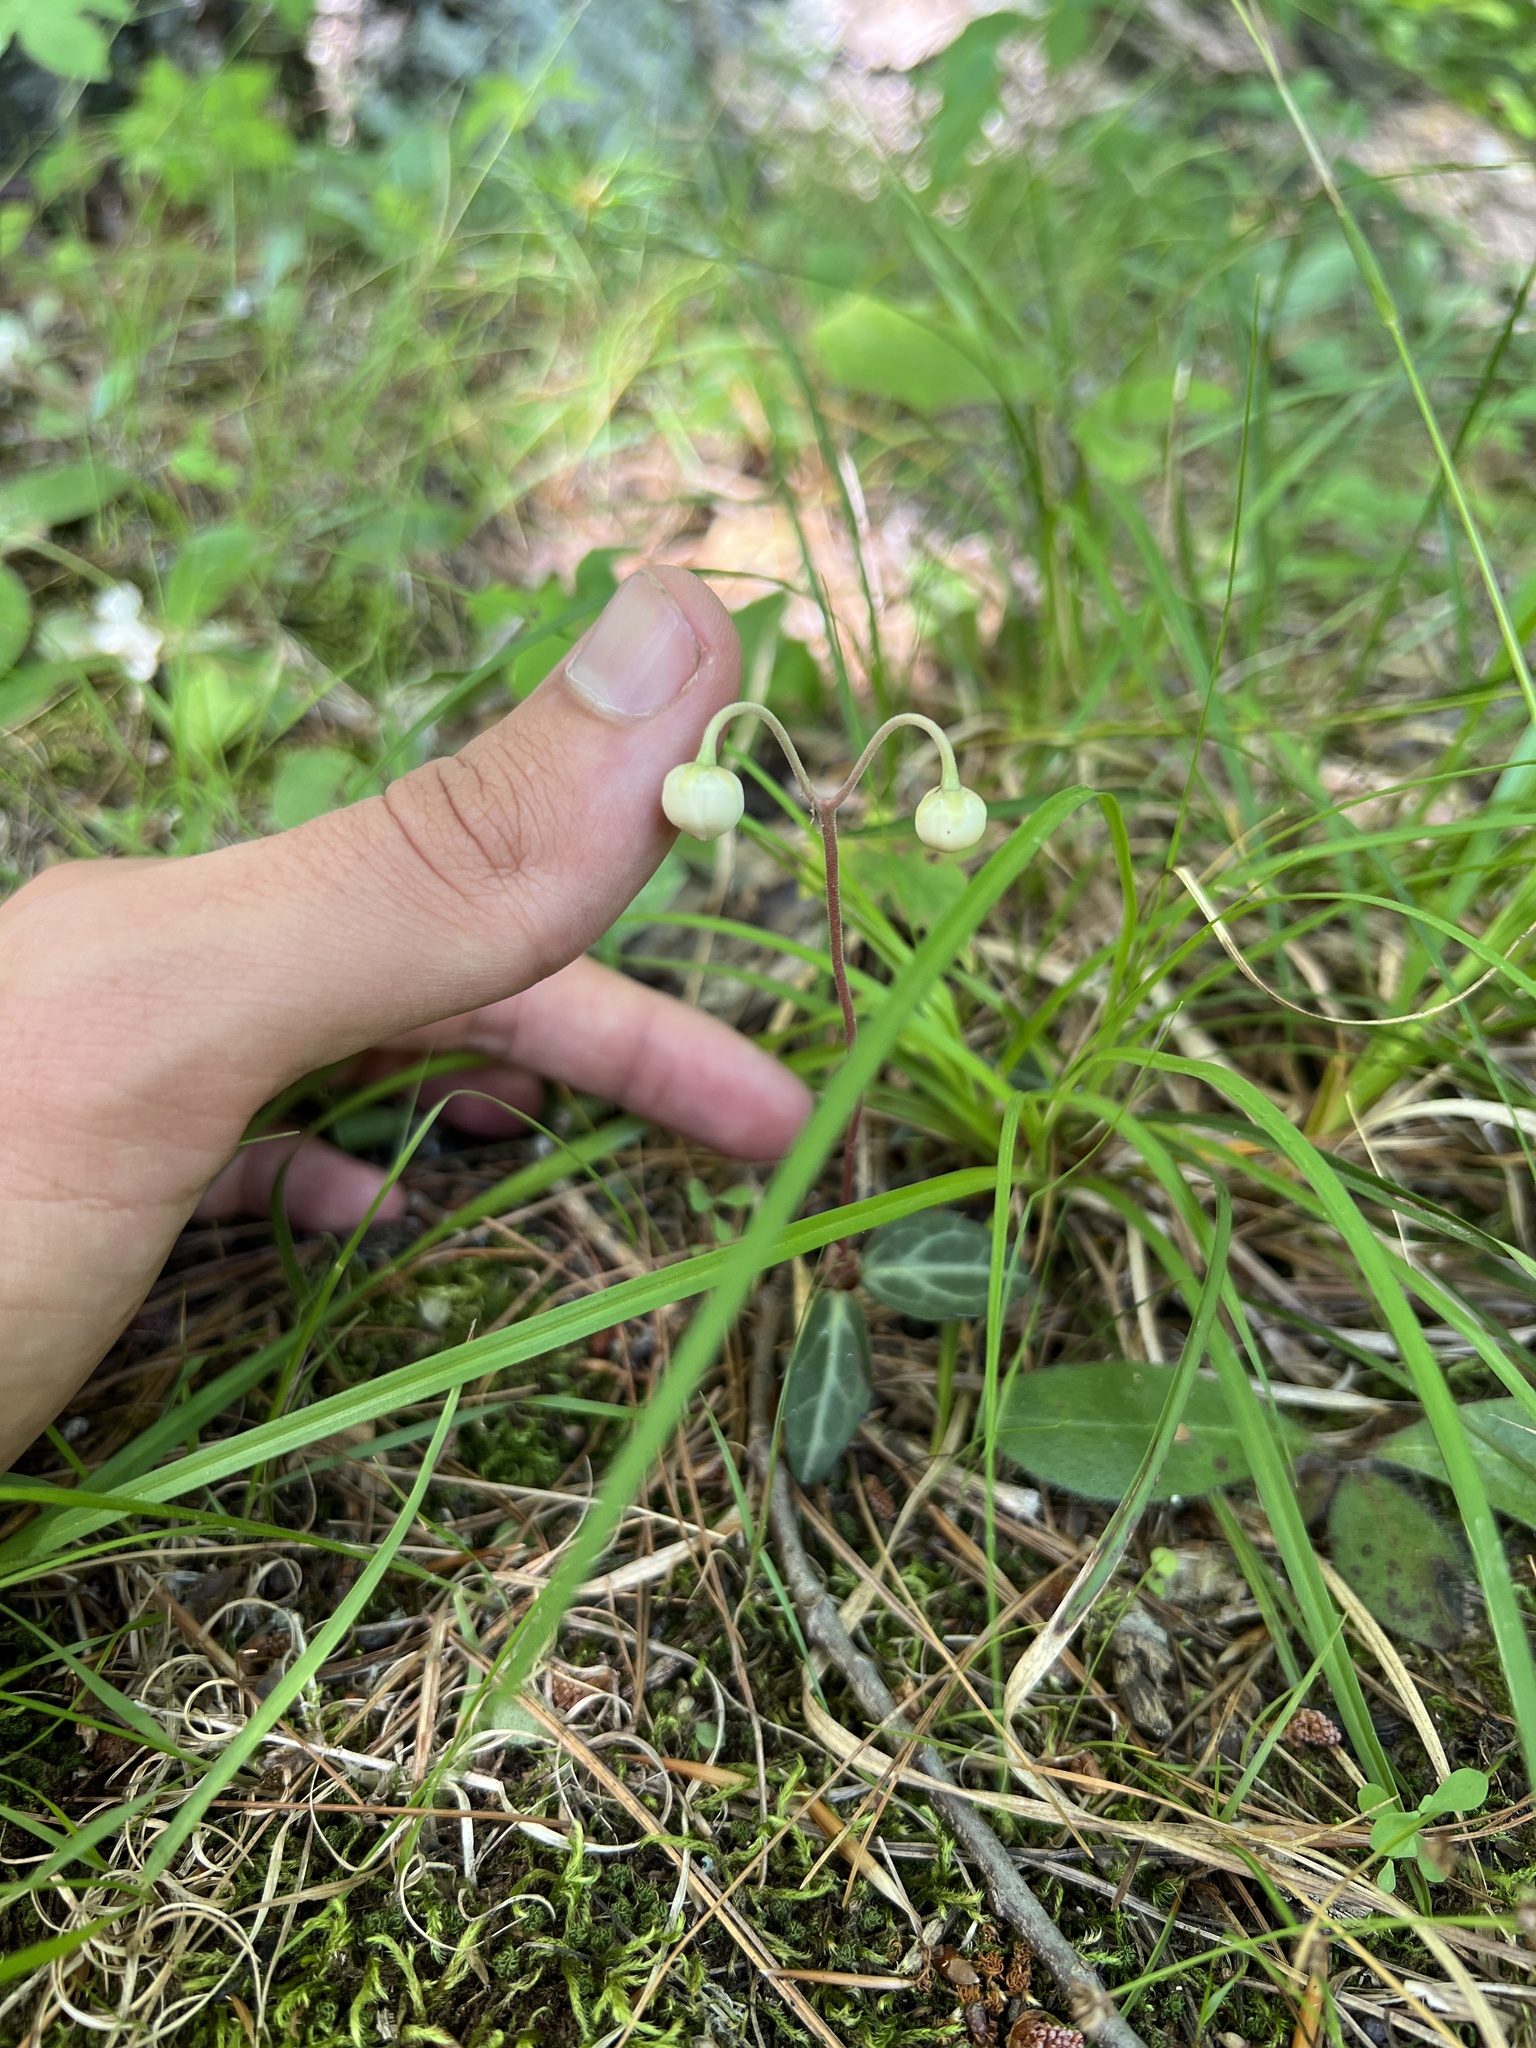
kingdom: Plantae
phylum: Tracheophyta
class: Magnoliopsida
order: Ericales
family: Ericaceae
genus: Chimaphila
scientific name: Chimaphila maculata
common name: Spotted pipsissewa
